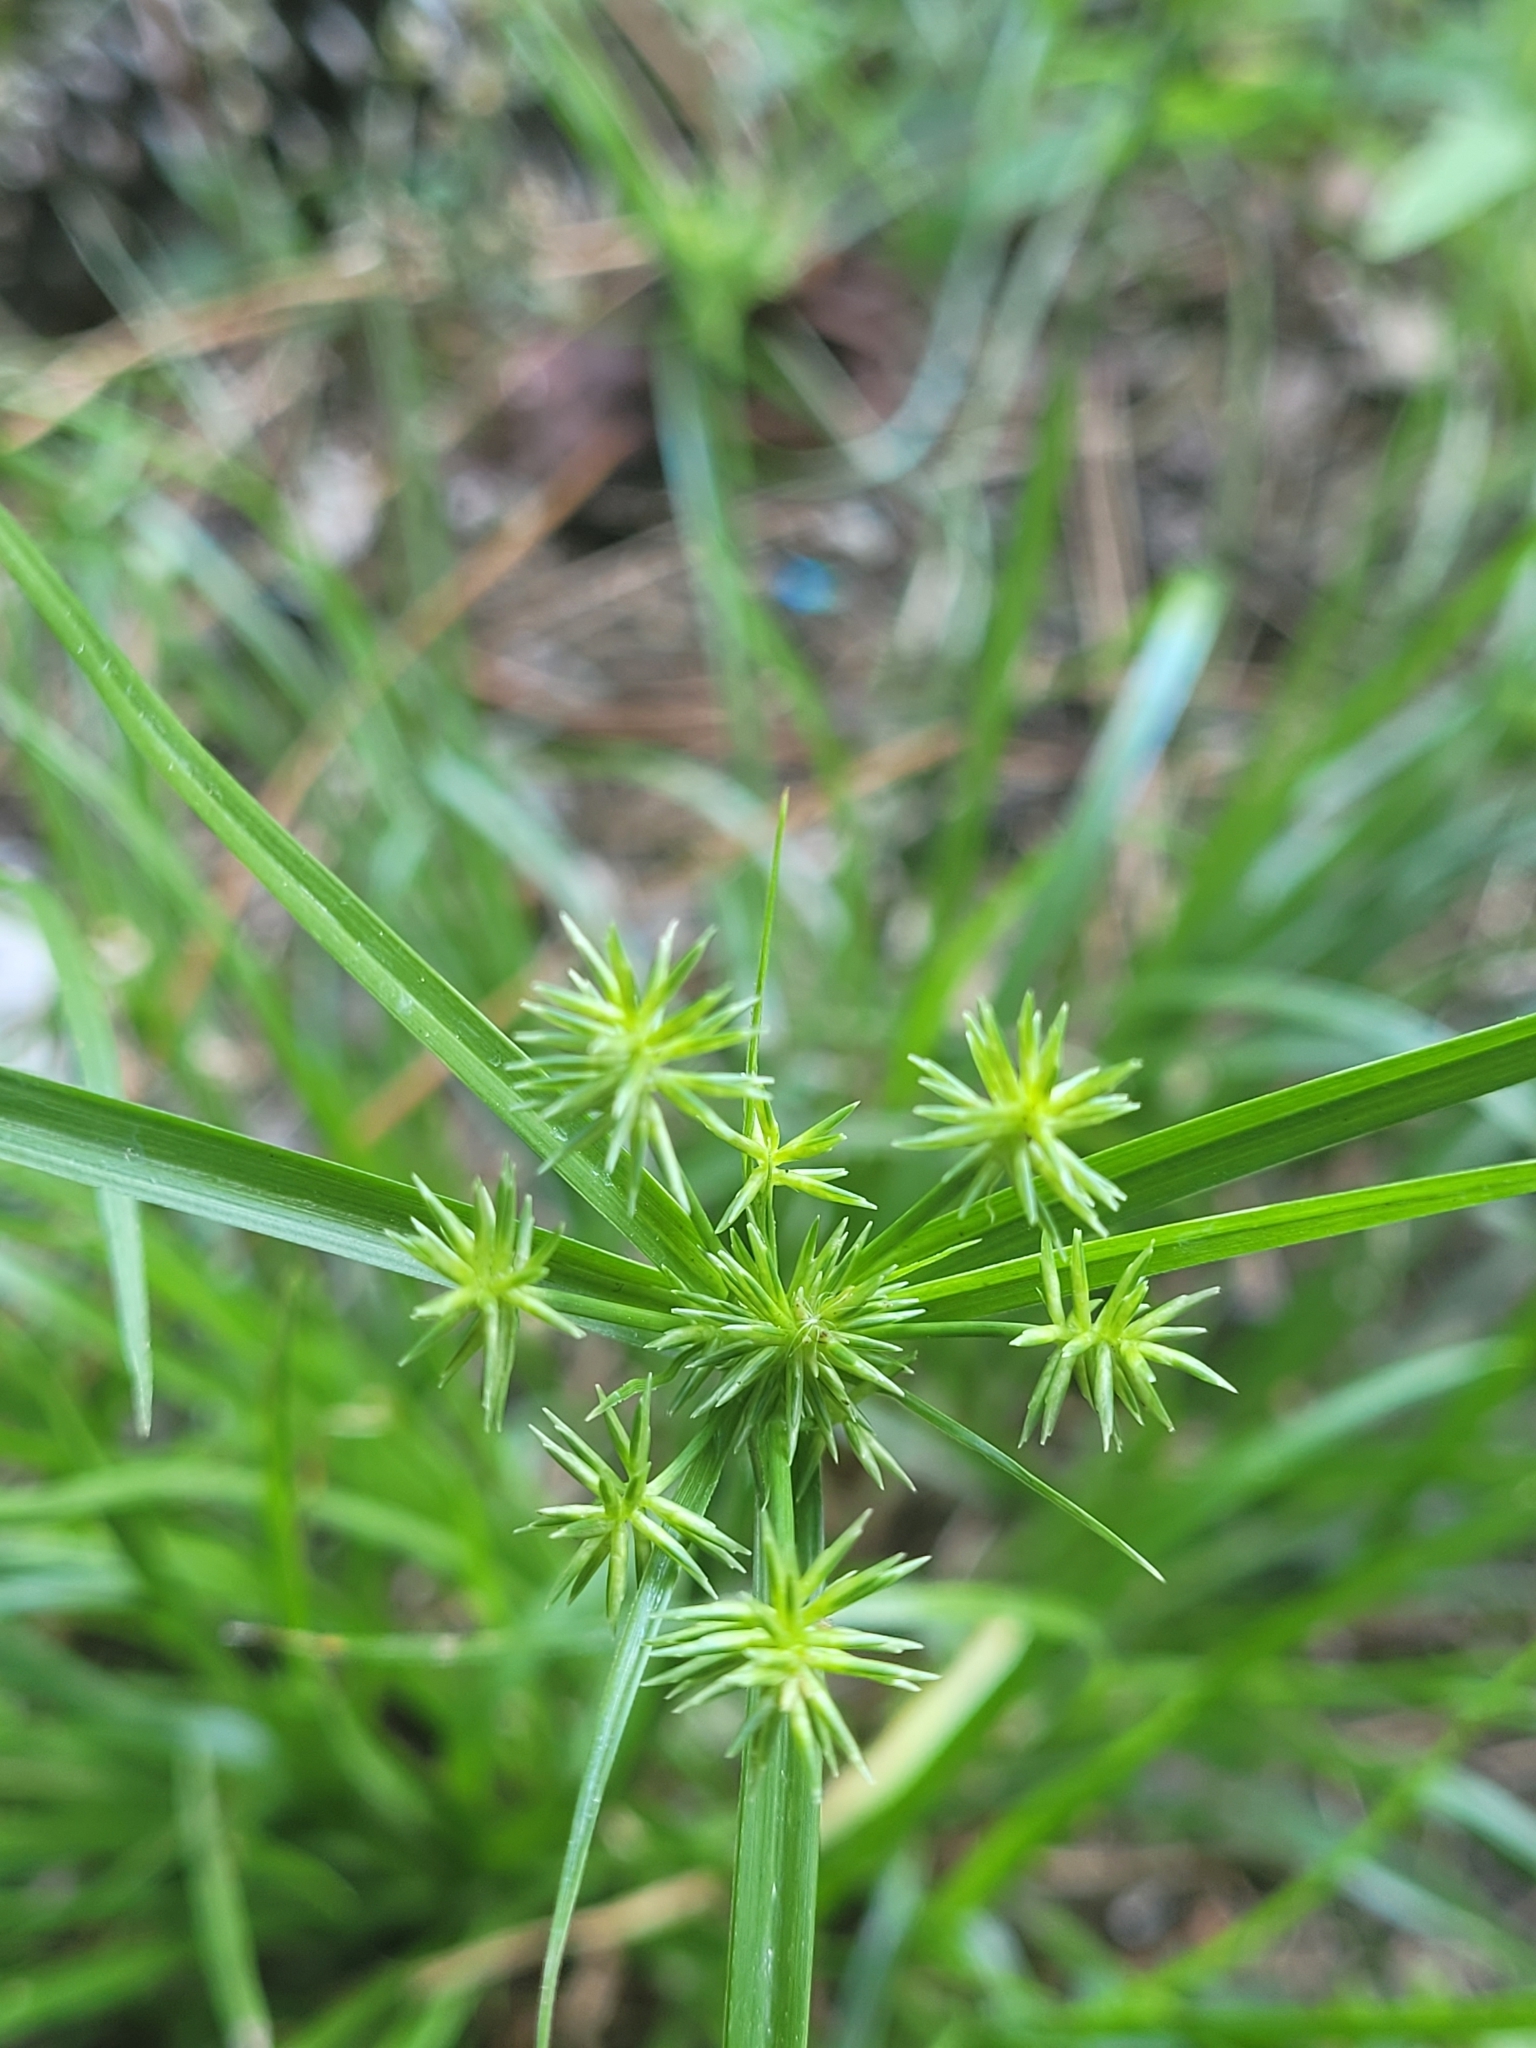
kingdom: Plantae
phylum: Tracheophyta
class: Liliopsida
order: Poales
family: Cyperaceae
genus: Cyperus
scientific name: Cyperus croceus
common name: Baldwin's flatsedge
